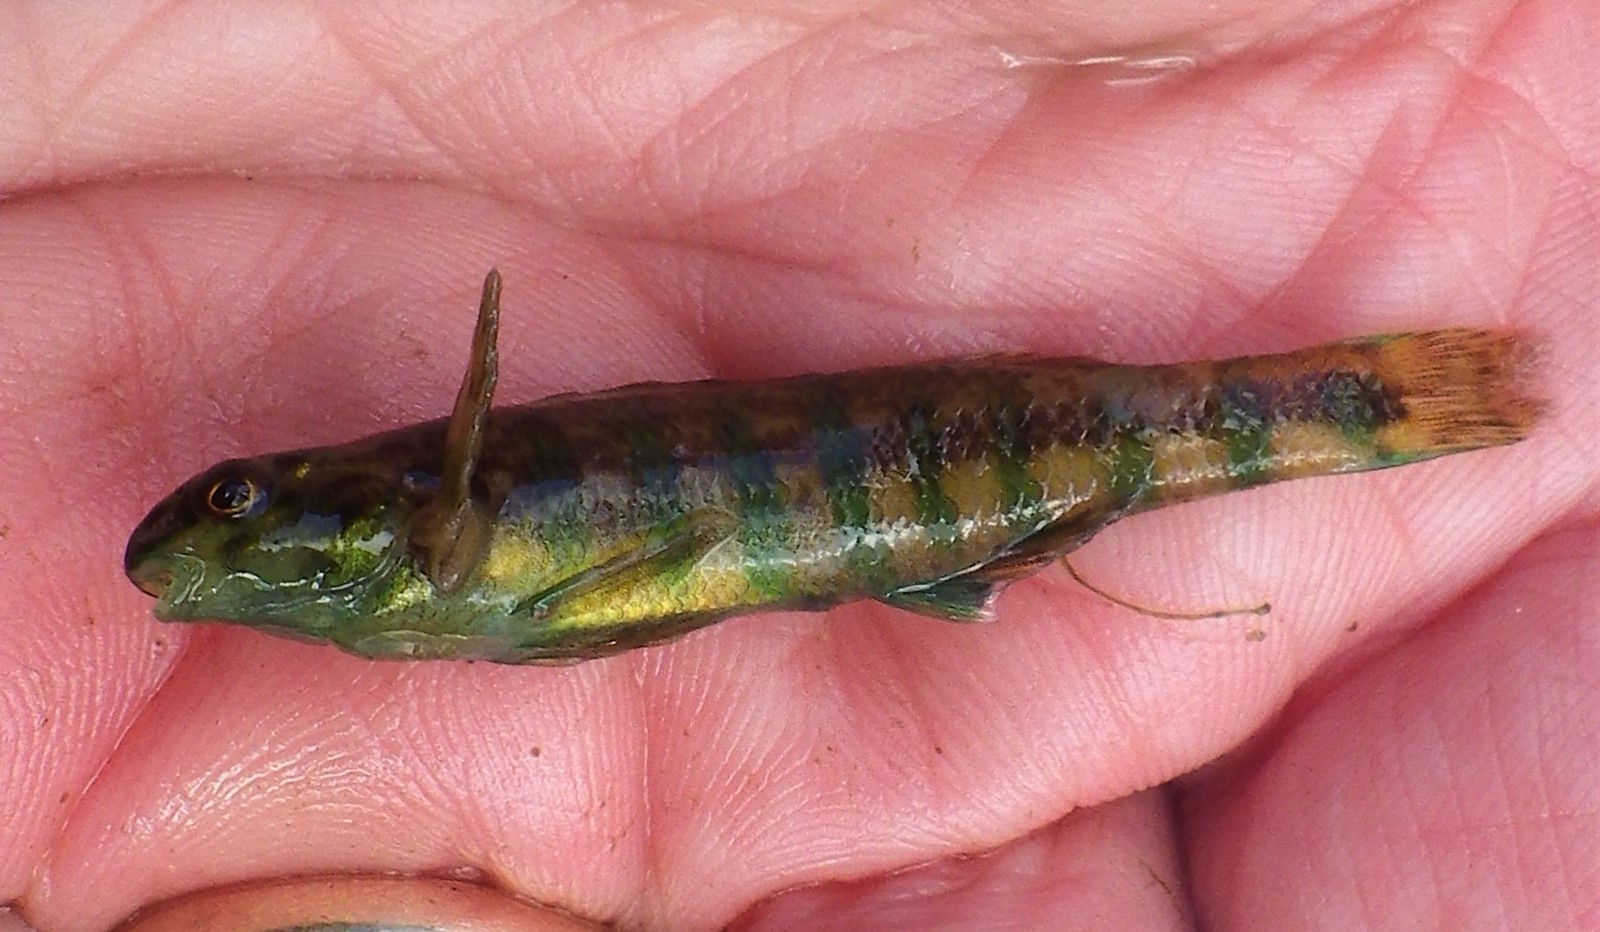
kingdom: Animalia
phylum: Chordata
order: Perciformes
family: Percidae
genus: Etheostoma
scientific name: Etheostoma zonale
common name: Banded darter
